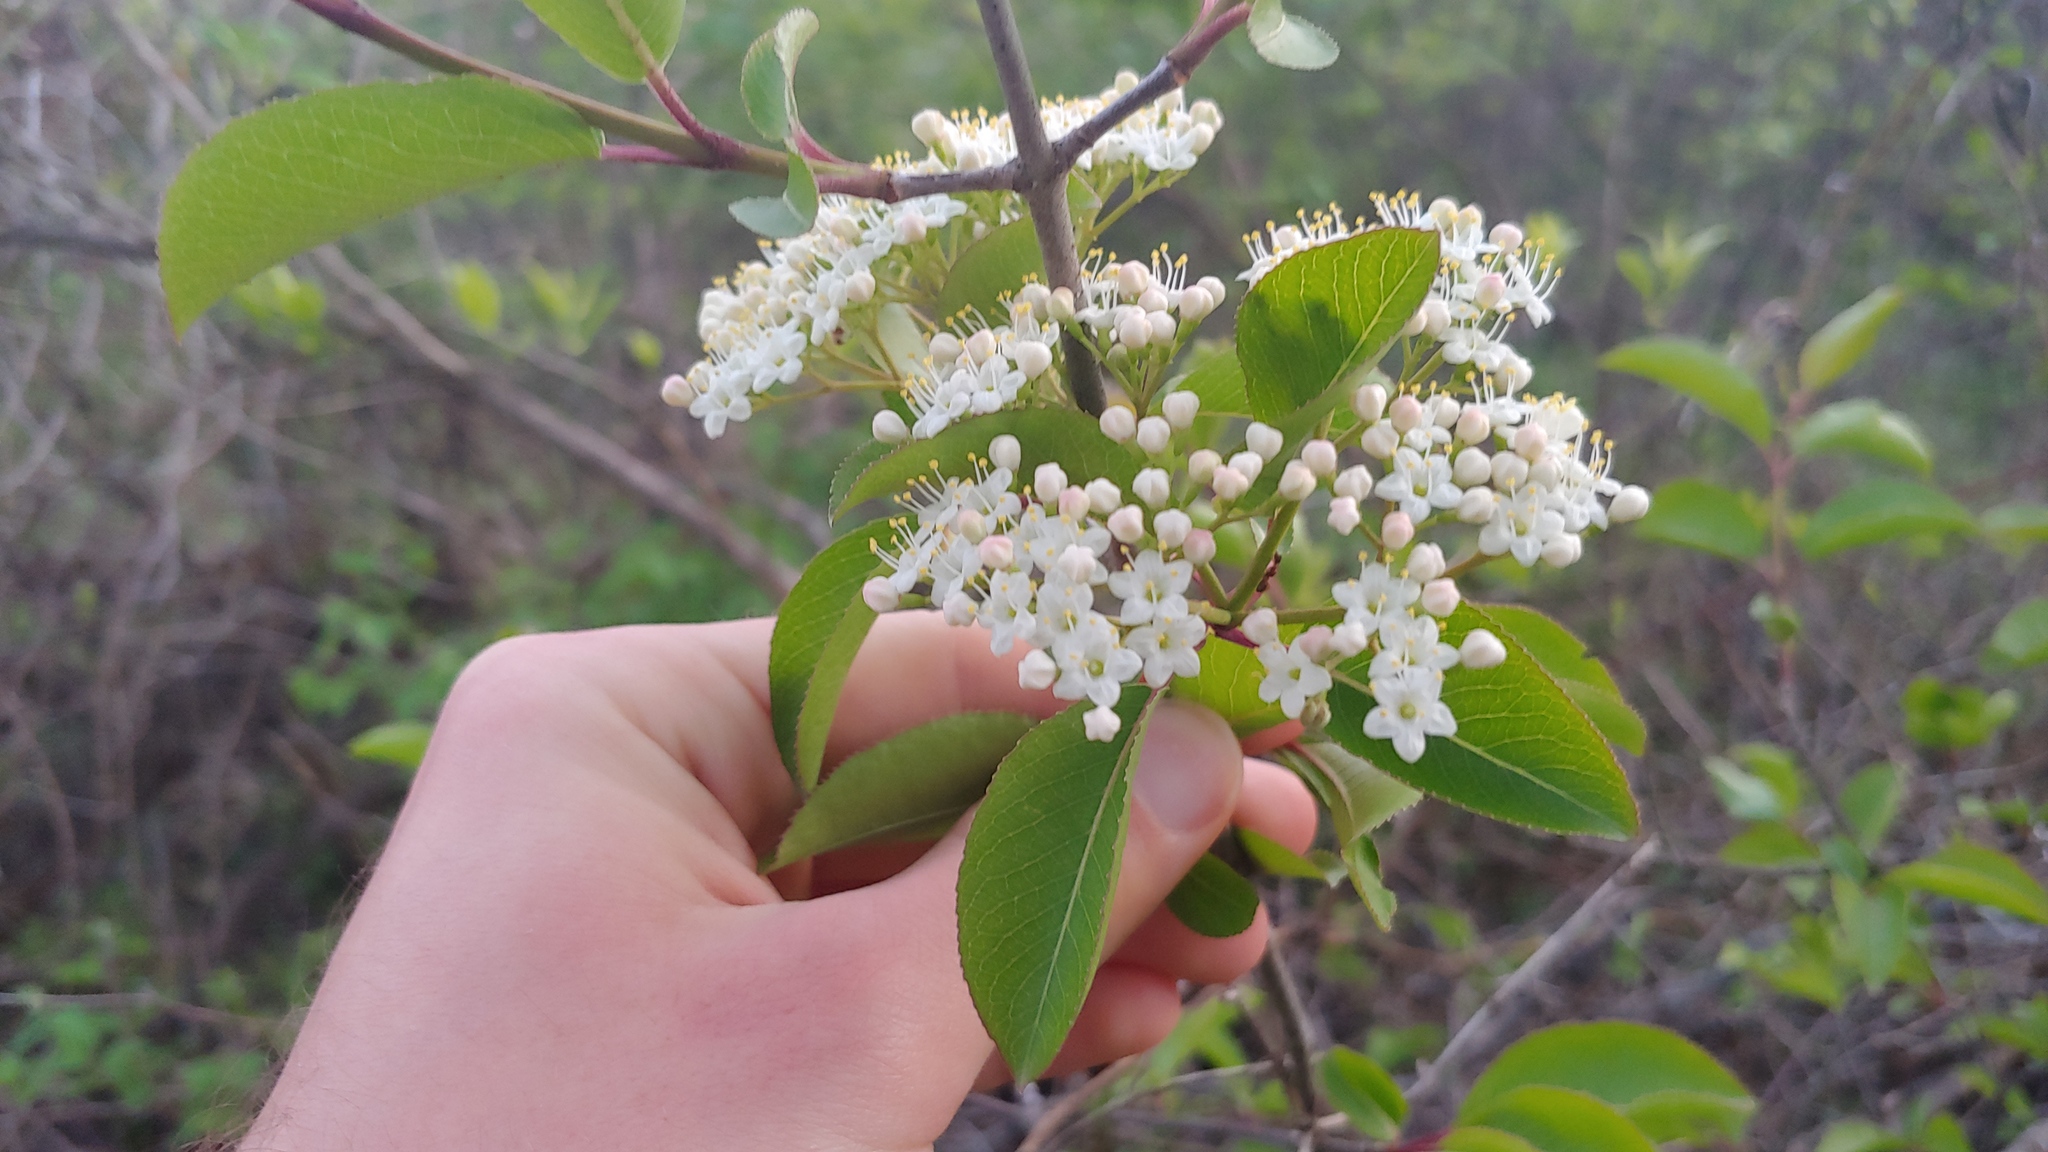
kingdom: Plantae
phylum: Tracheophyta
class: Magnoliopsida
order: Dipsacales
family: Viburnaceae
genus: Viburnum
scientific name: Viburnum prunifolium
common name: Black haw
